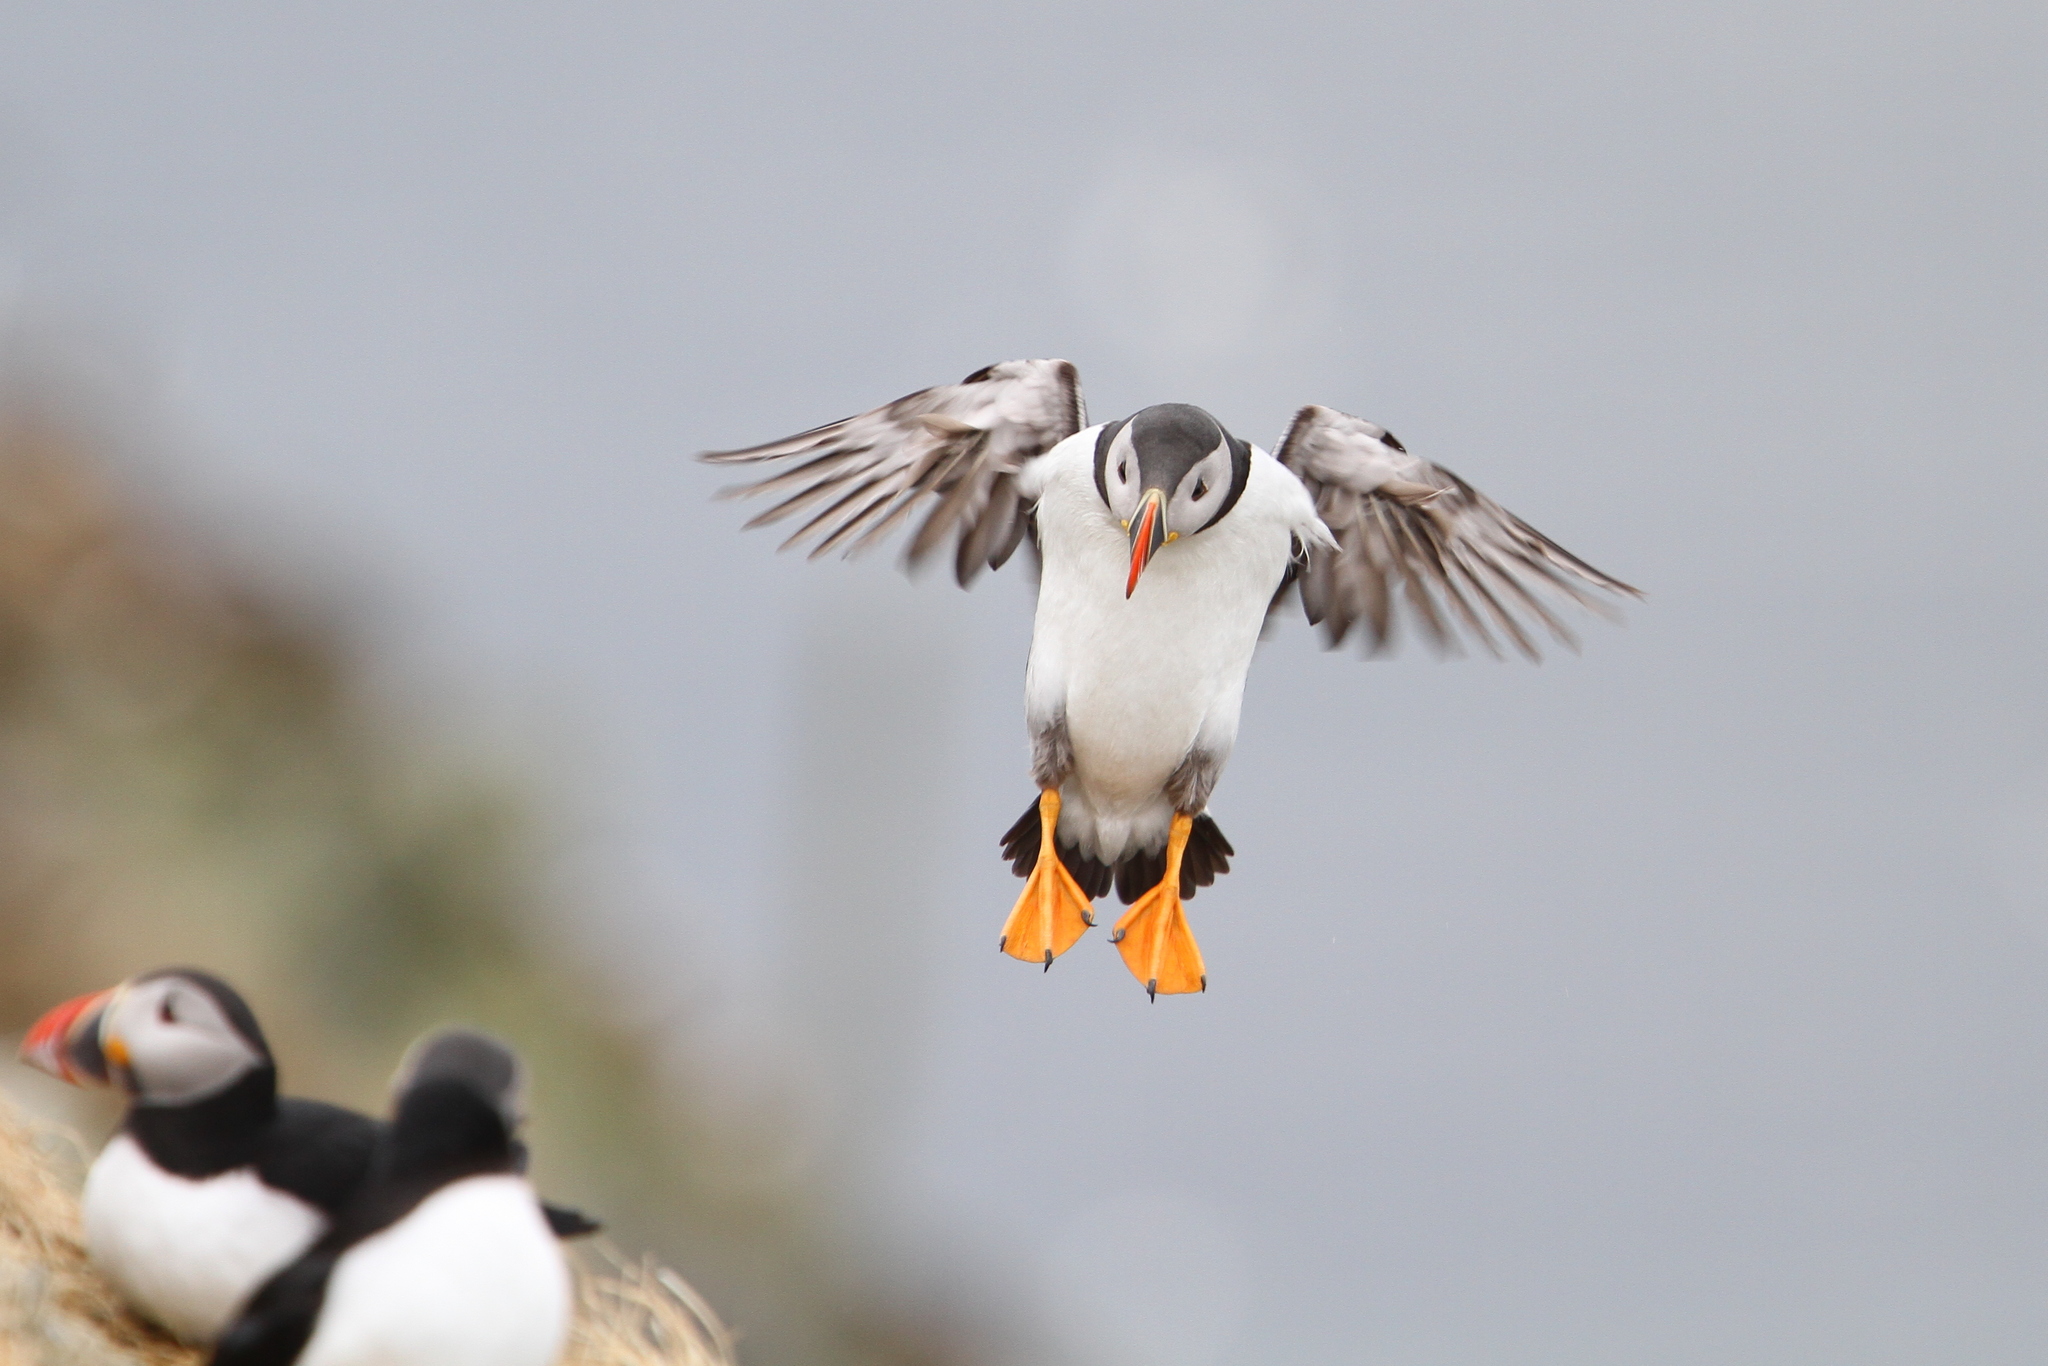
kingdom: Animalia
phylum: Chordata
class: Aves
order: Charadriiformes
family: Alcidae
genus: Fratercula
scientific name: Fratercula arctica
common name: Atlantic puffin
